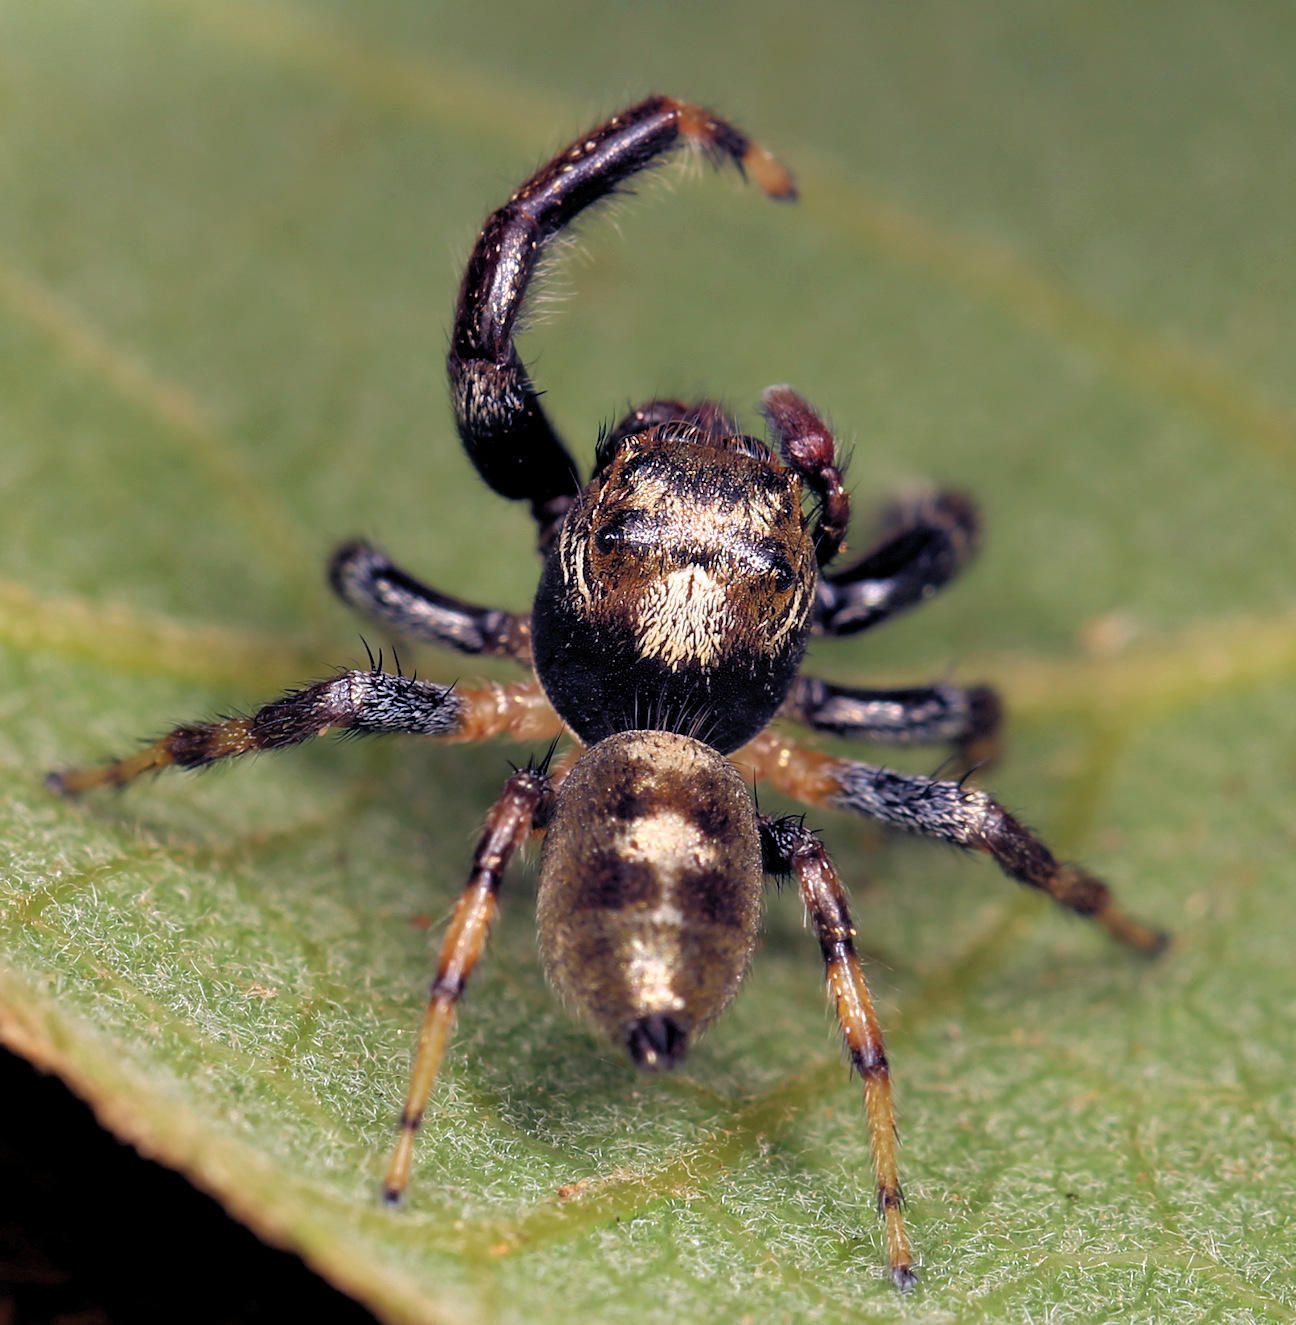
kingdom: Animalia
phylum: Arthropoda
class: Arachnida
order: Araneae
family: Salticidae
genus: Thyene
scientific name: Thyene natalii
